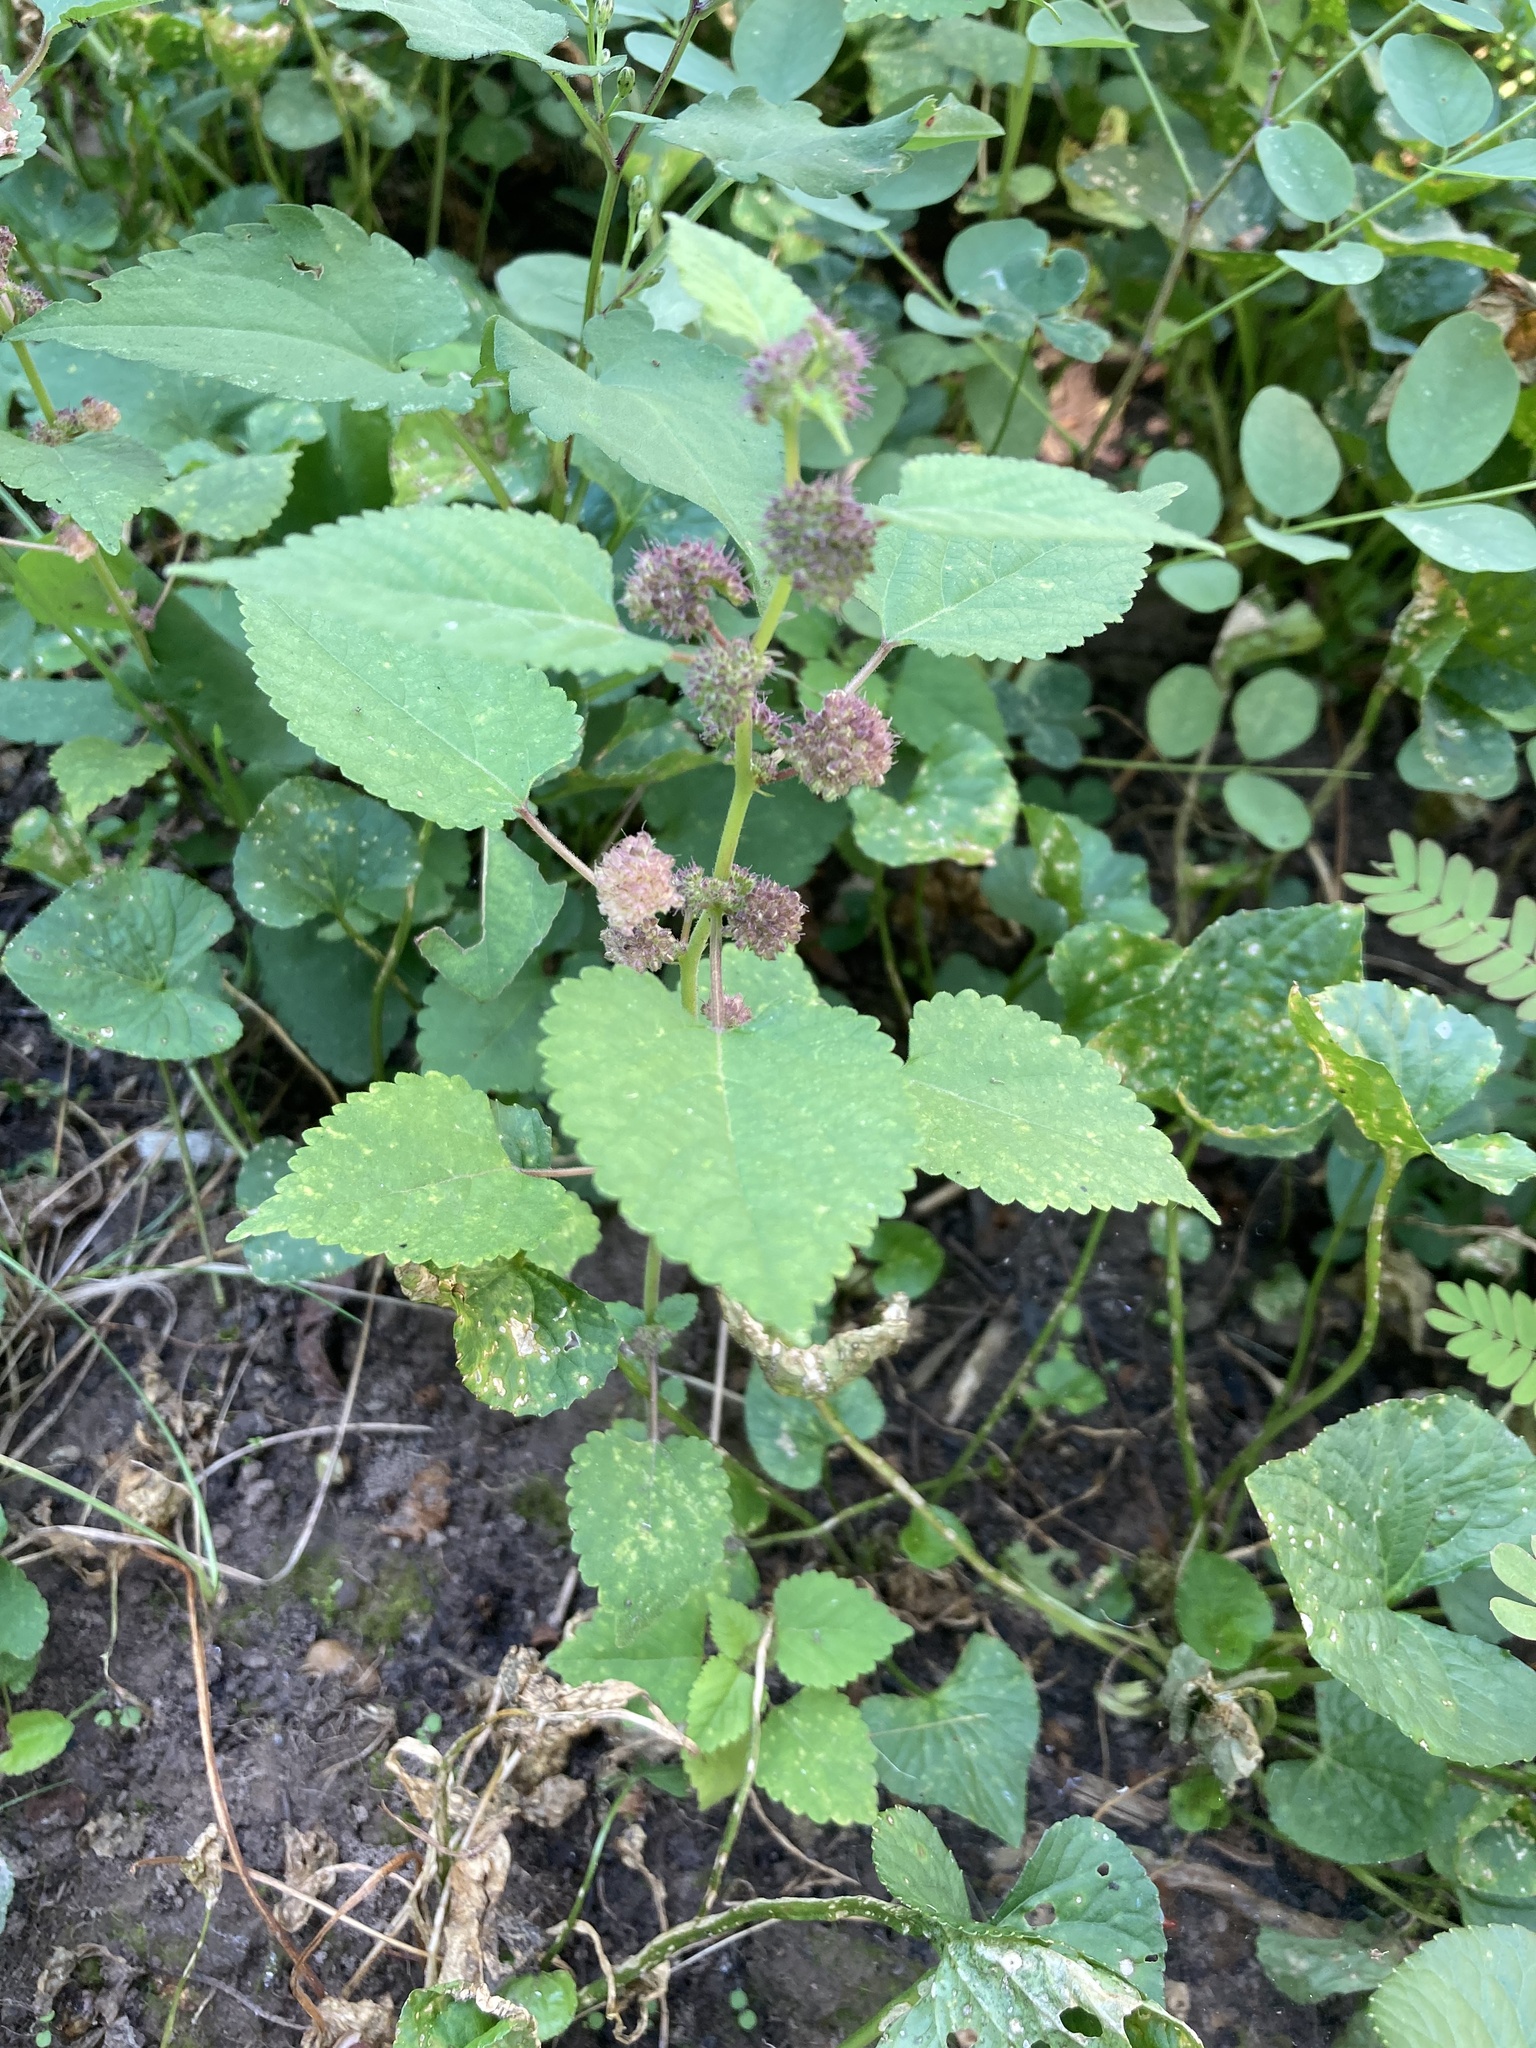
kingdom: Plantae
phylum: Tracheophyta
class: Magnoliopsida
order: Rosales
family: Moraceae
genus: Fatoua
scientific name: Fatoua villosa
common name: Hairy crabweed
